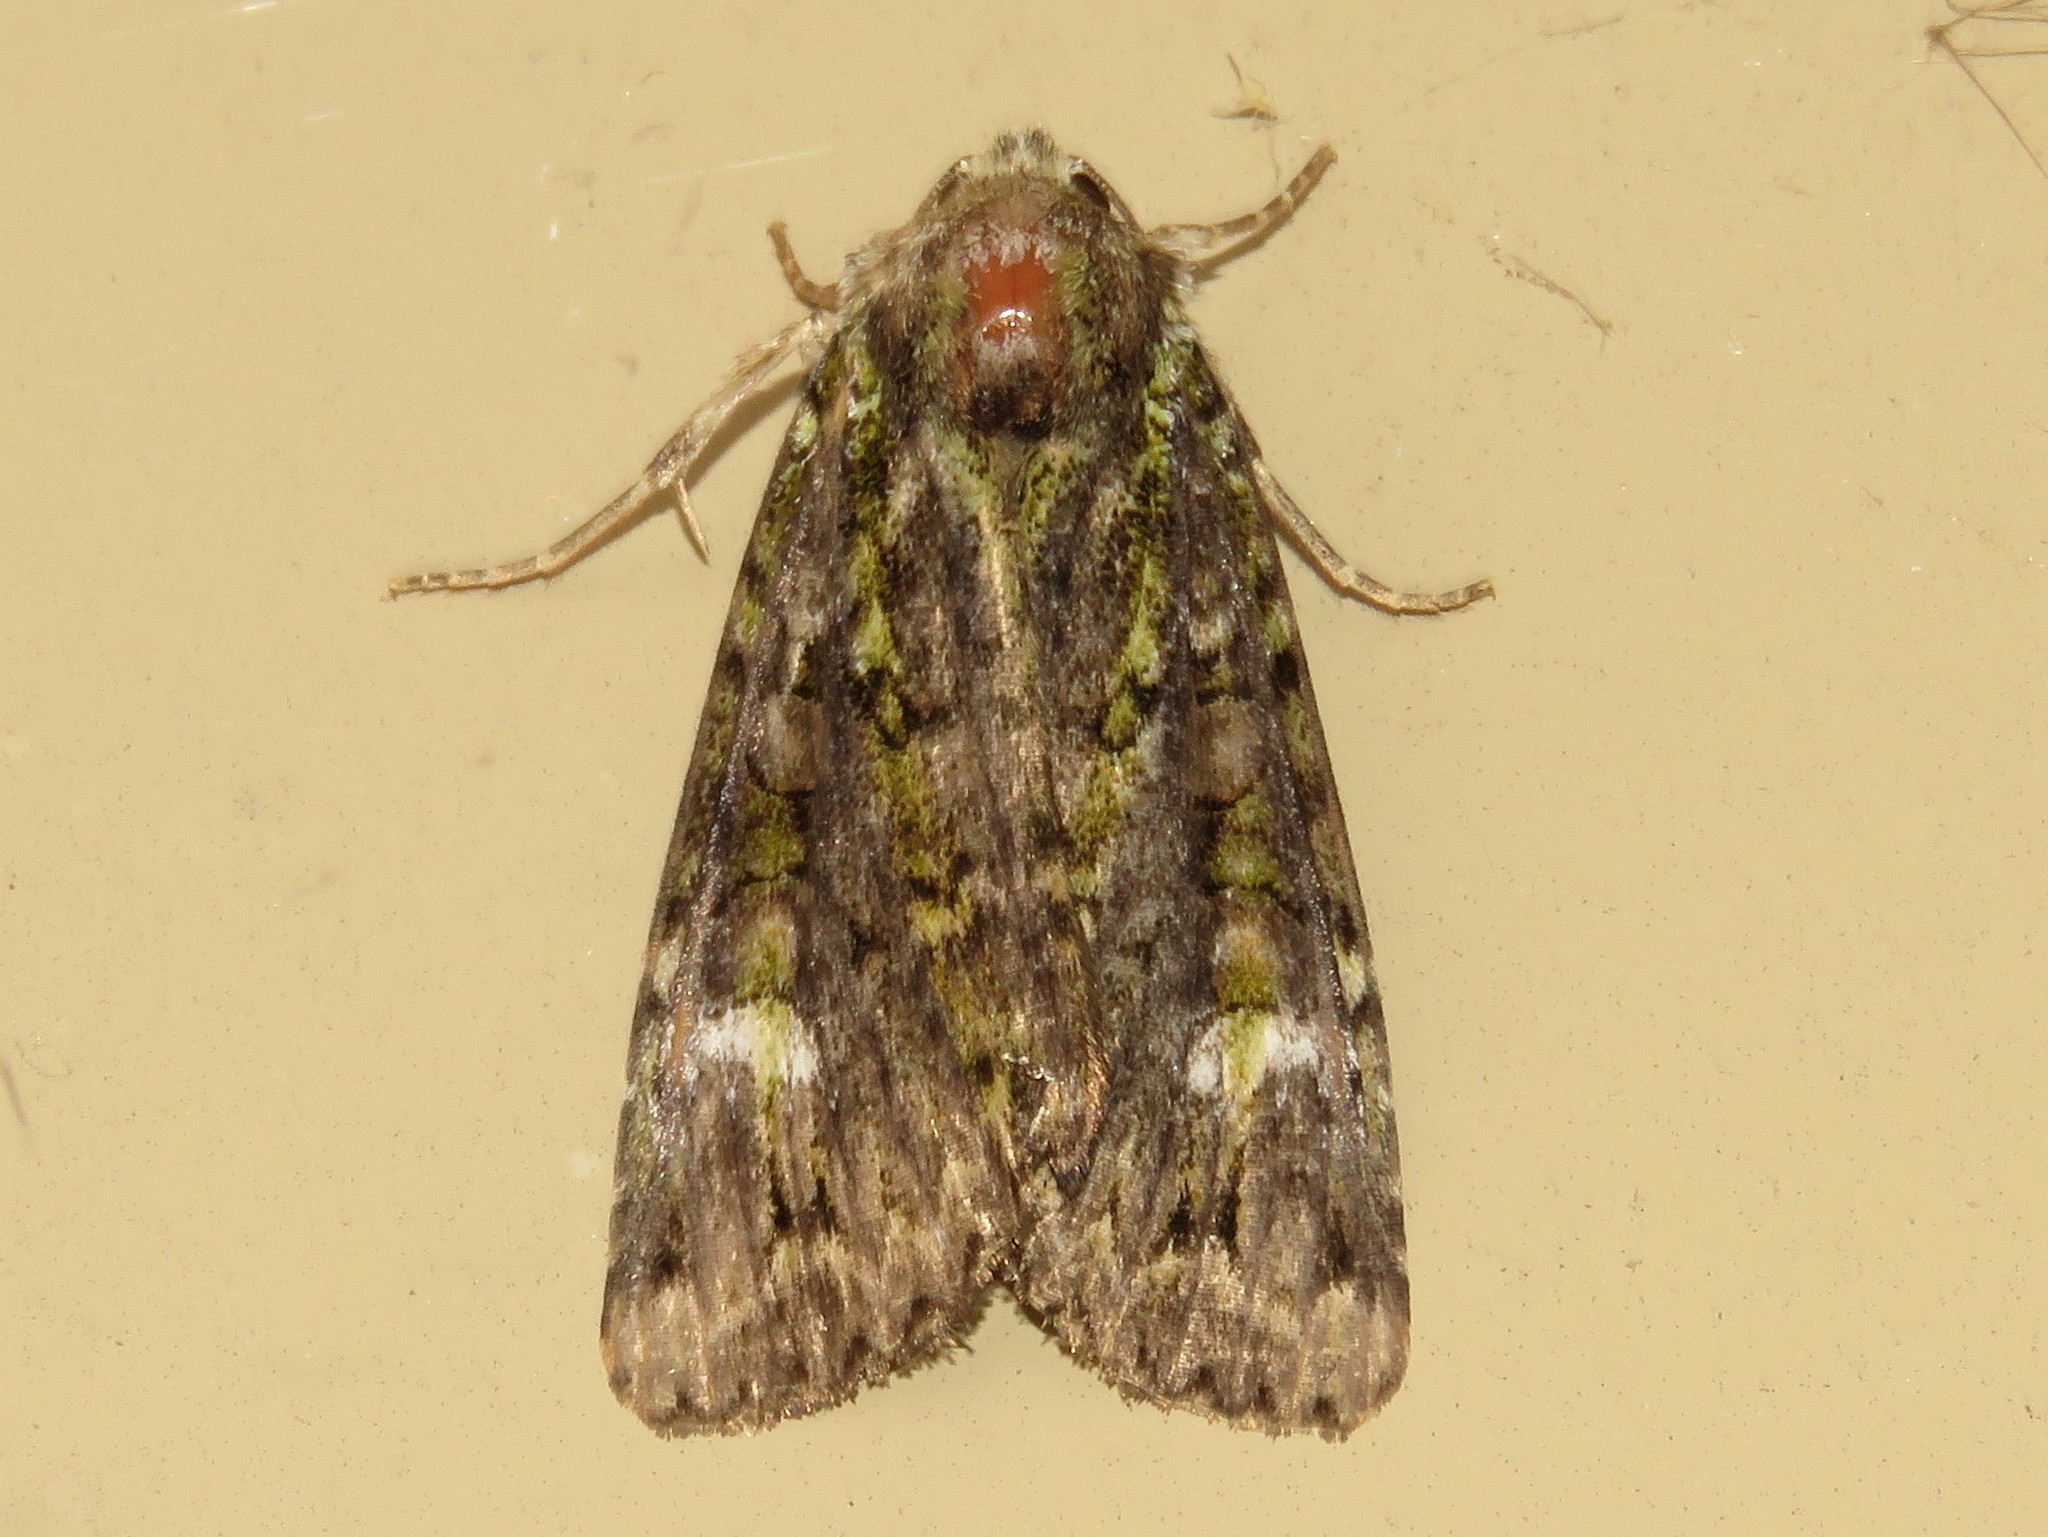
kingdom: Animalia
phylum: Arthropoda
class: Insecta
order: Lepidoptera
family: Noctuidae
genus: Anaplectoides
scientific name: Anaplectoides prasina
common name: Green arches
